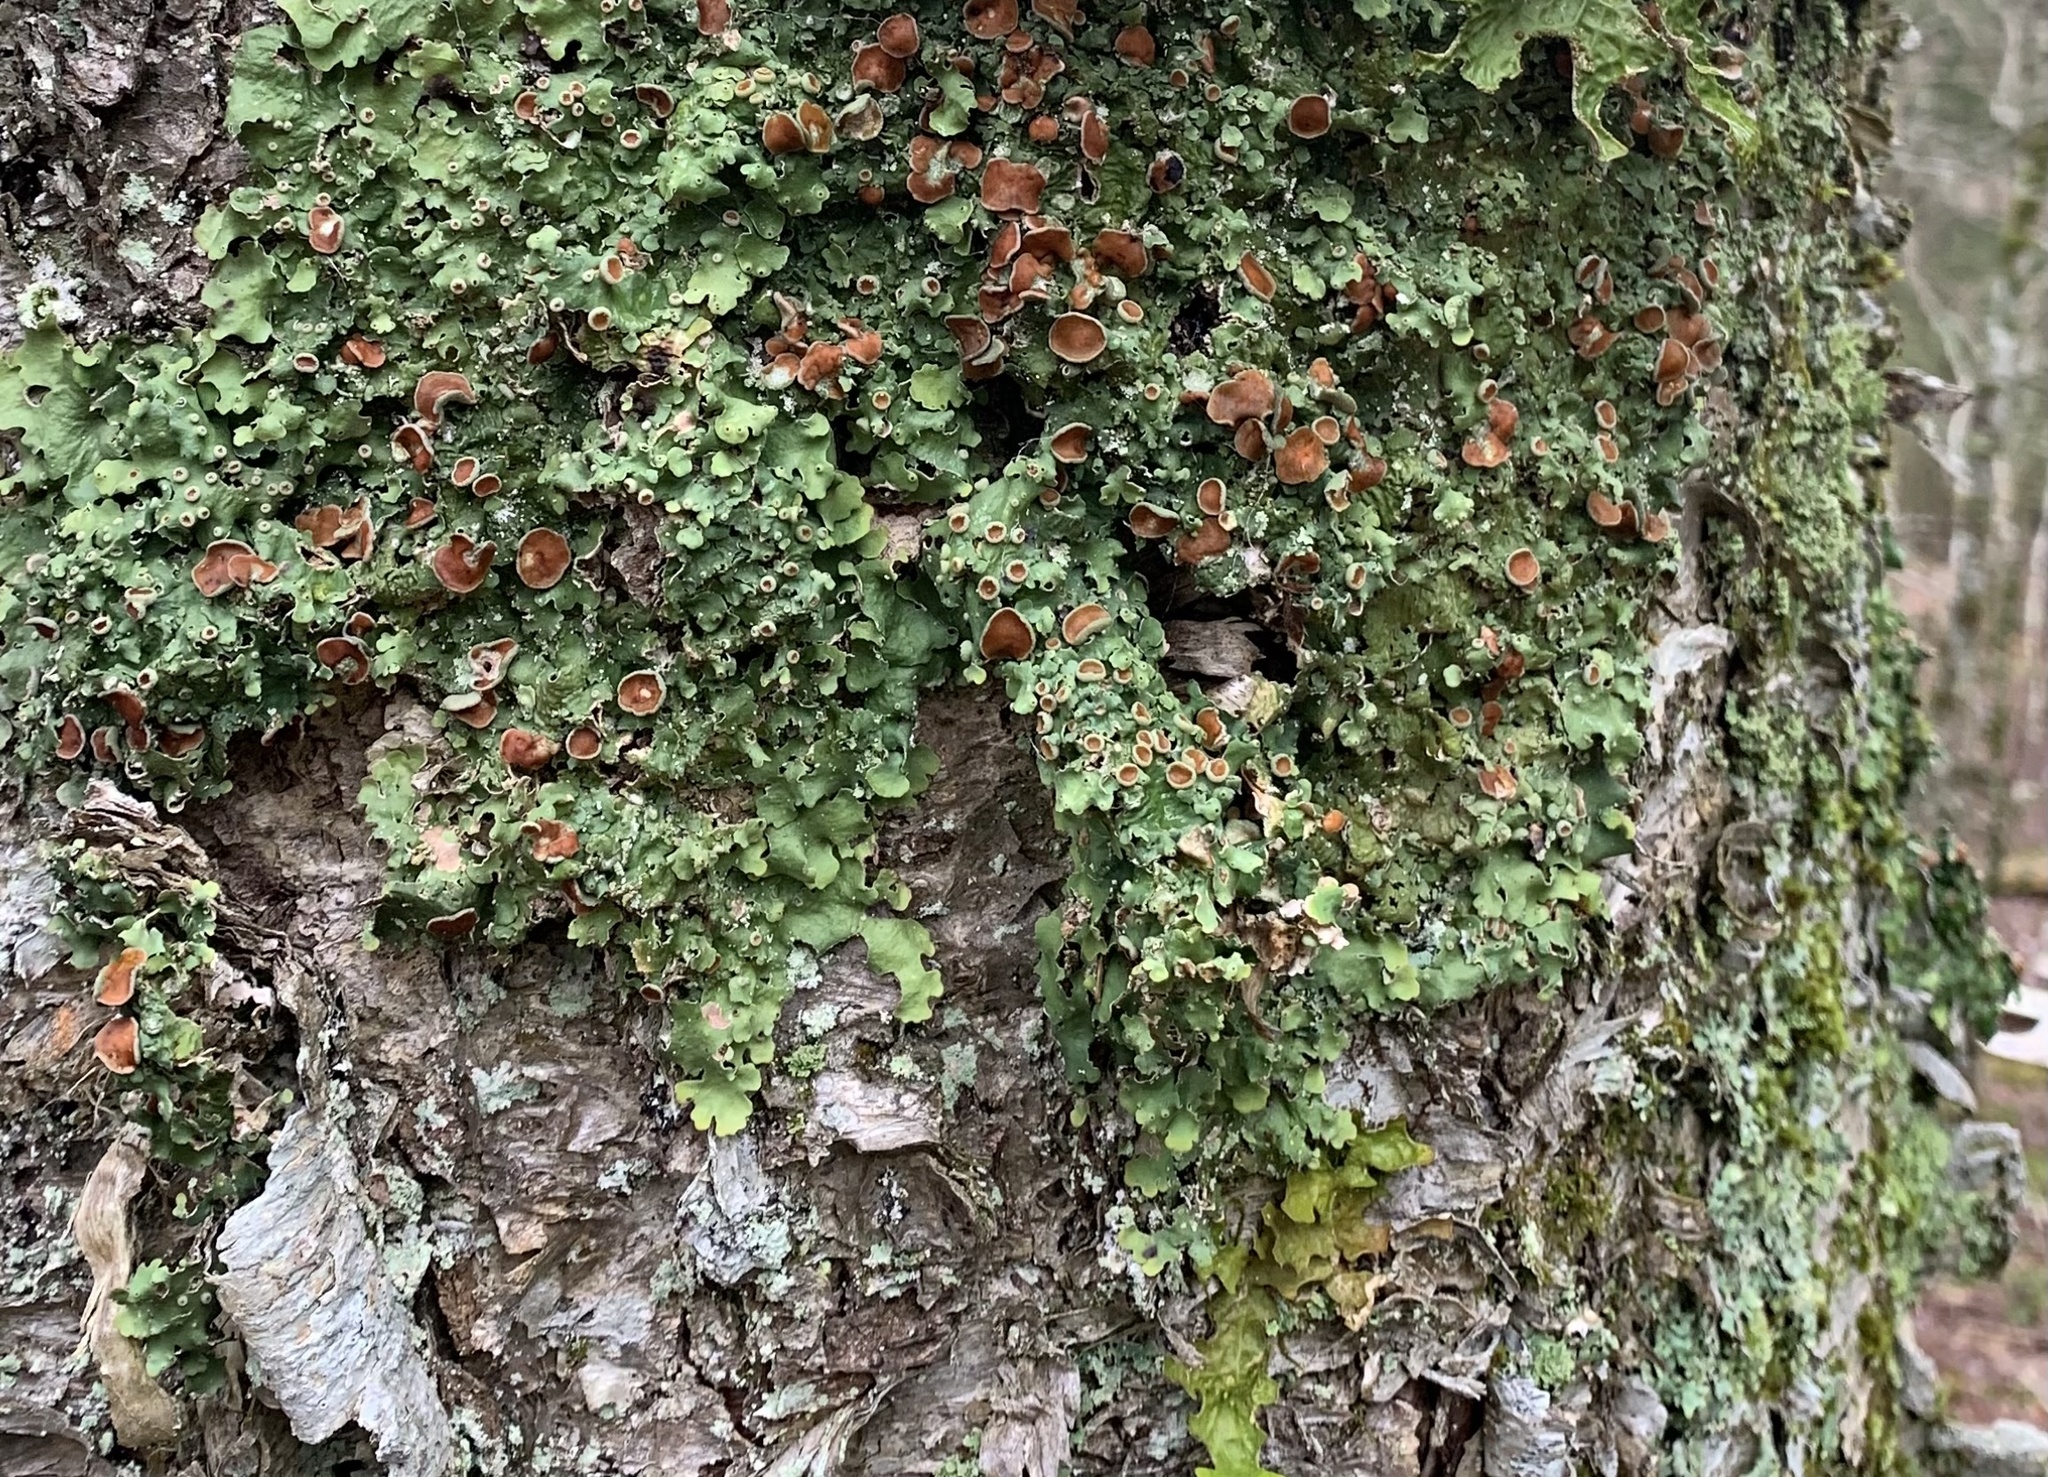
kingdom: Fungi
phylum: Ascomycota
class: Lecanoromycetes
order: Peltigerales
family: Lobariaceae
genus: Ricasolia
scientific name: Ricasolia quercizans
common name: Smooth lungwort
